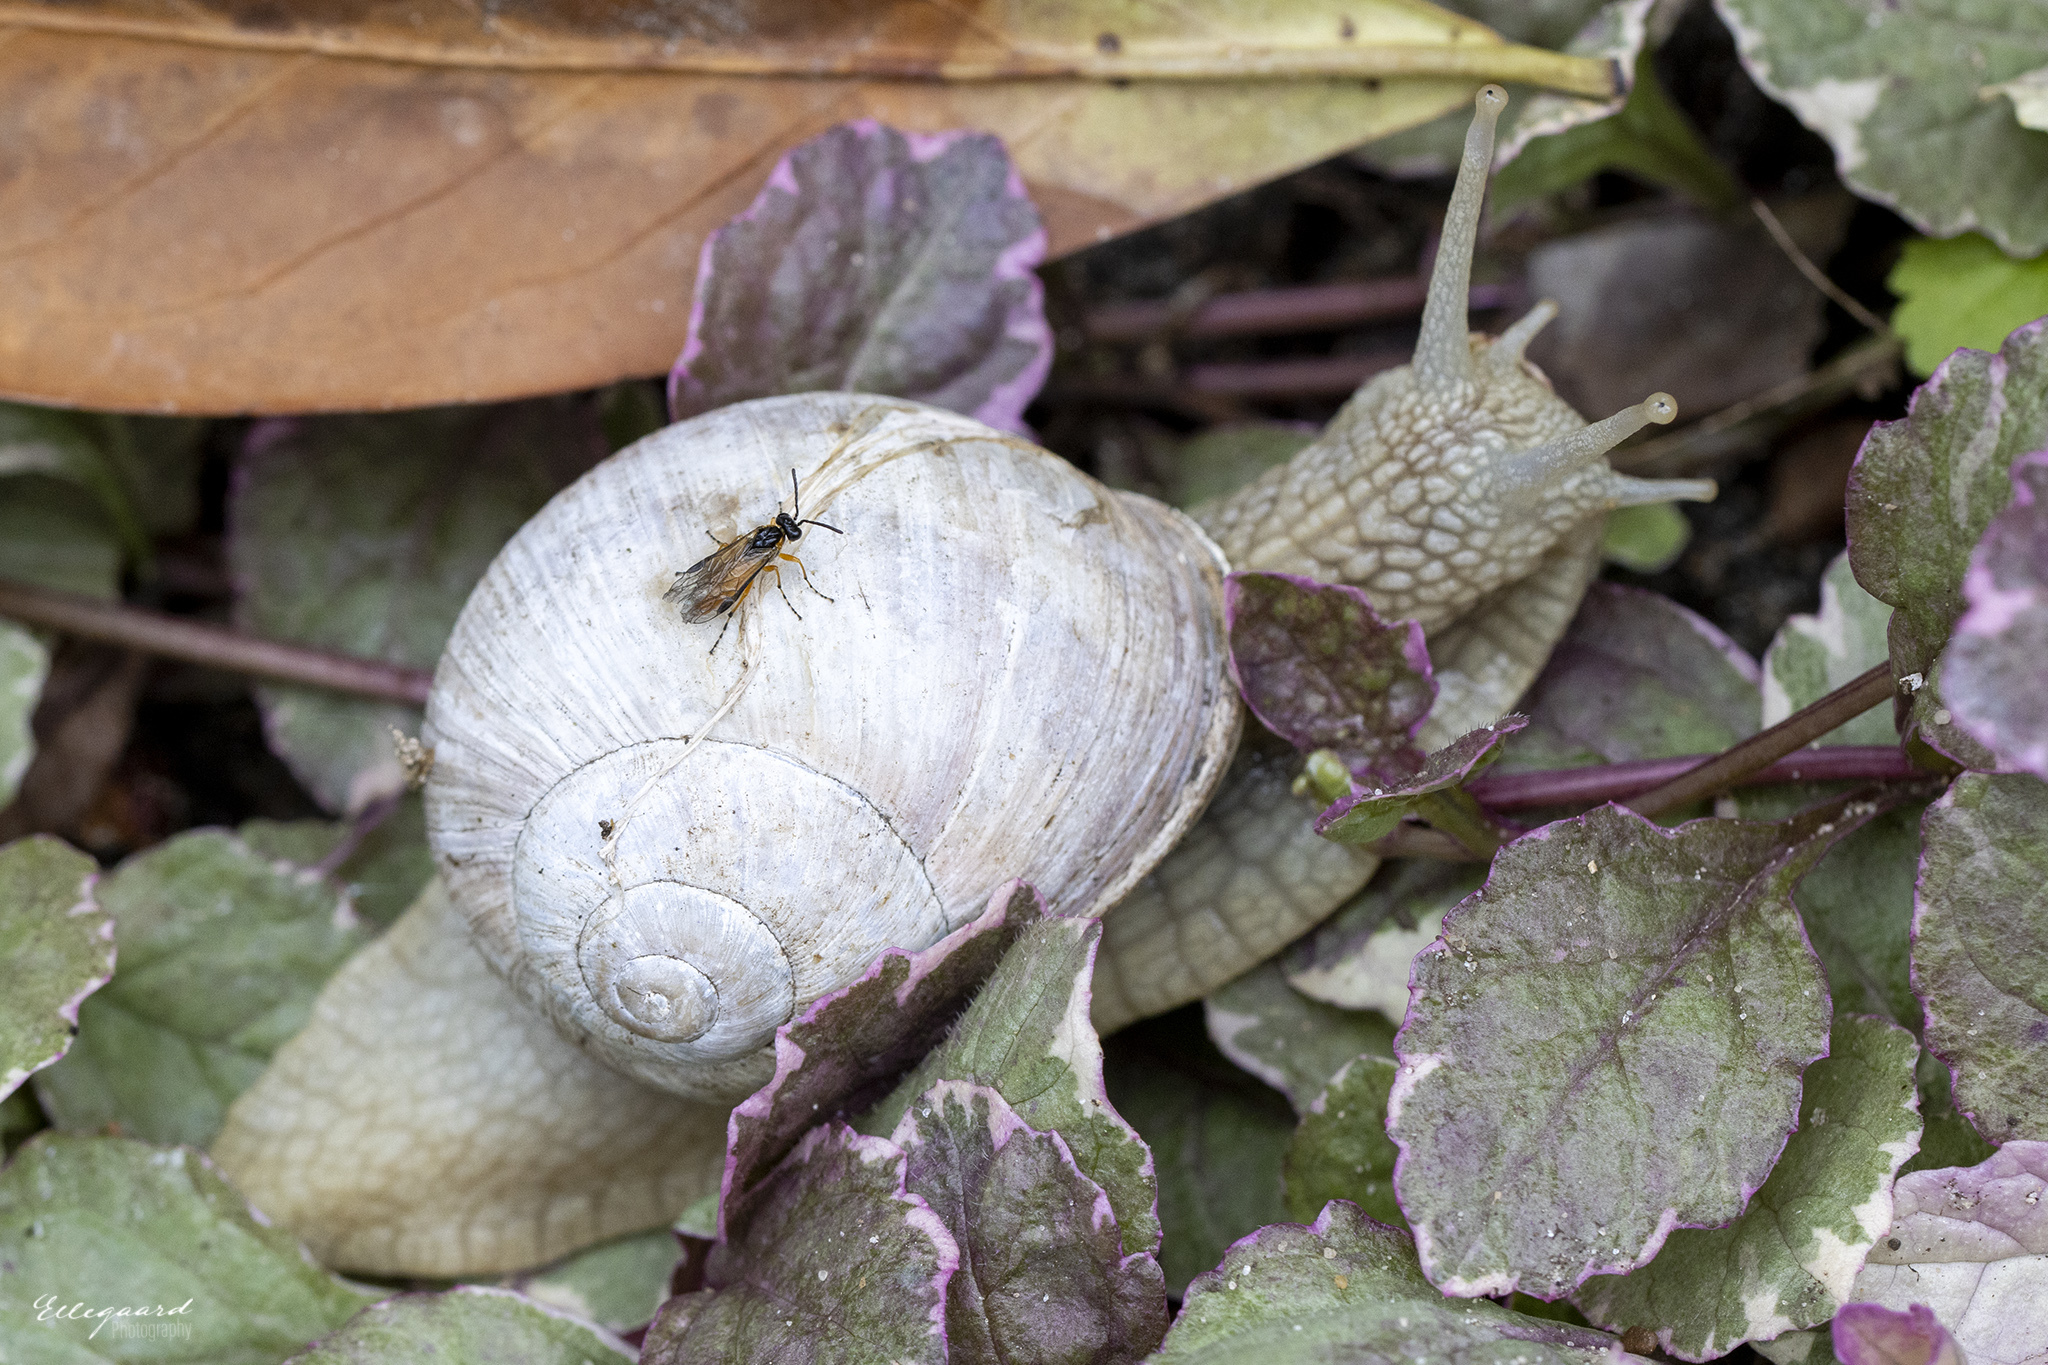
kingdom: Animalia
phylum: Mollusca
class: Gastropoda
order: Stylommatophora
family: Helicidae
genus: Helix
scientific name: Helix pomatia
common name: Roman snail
